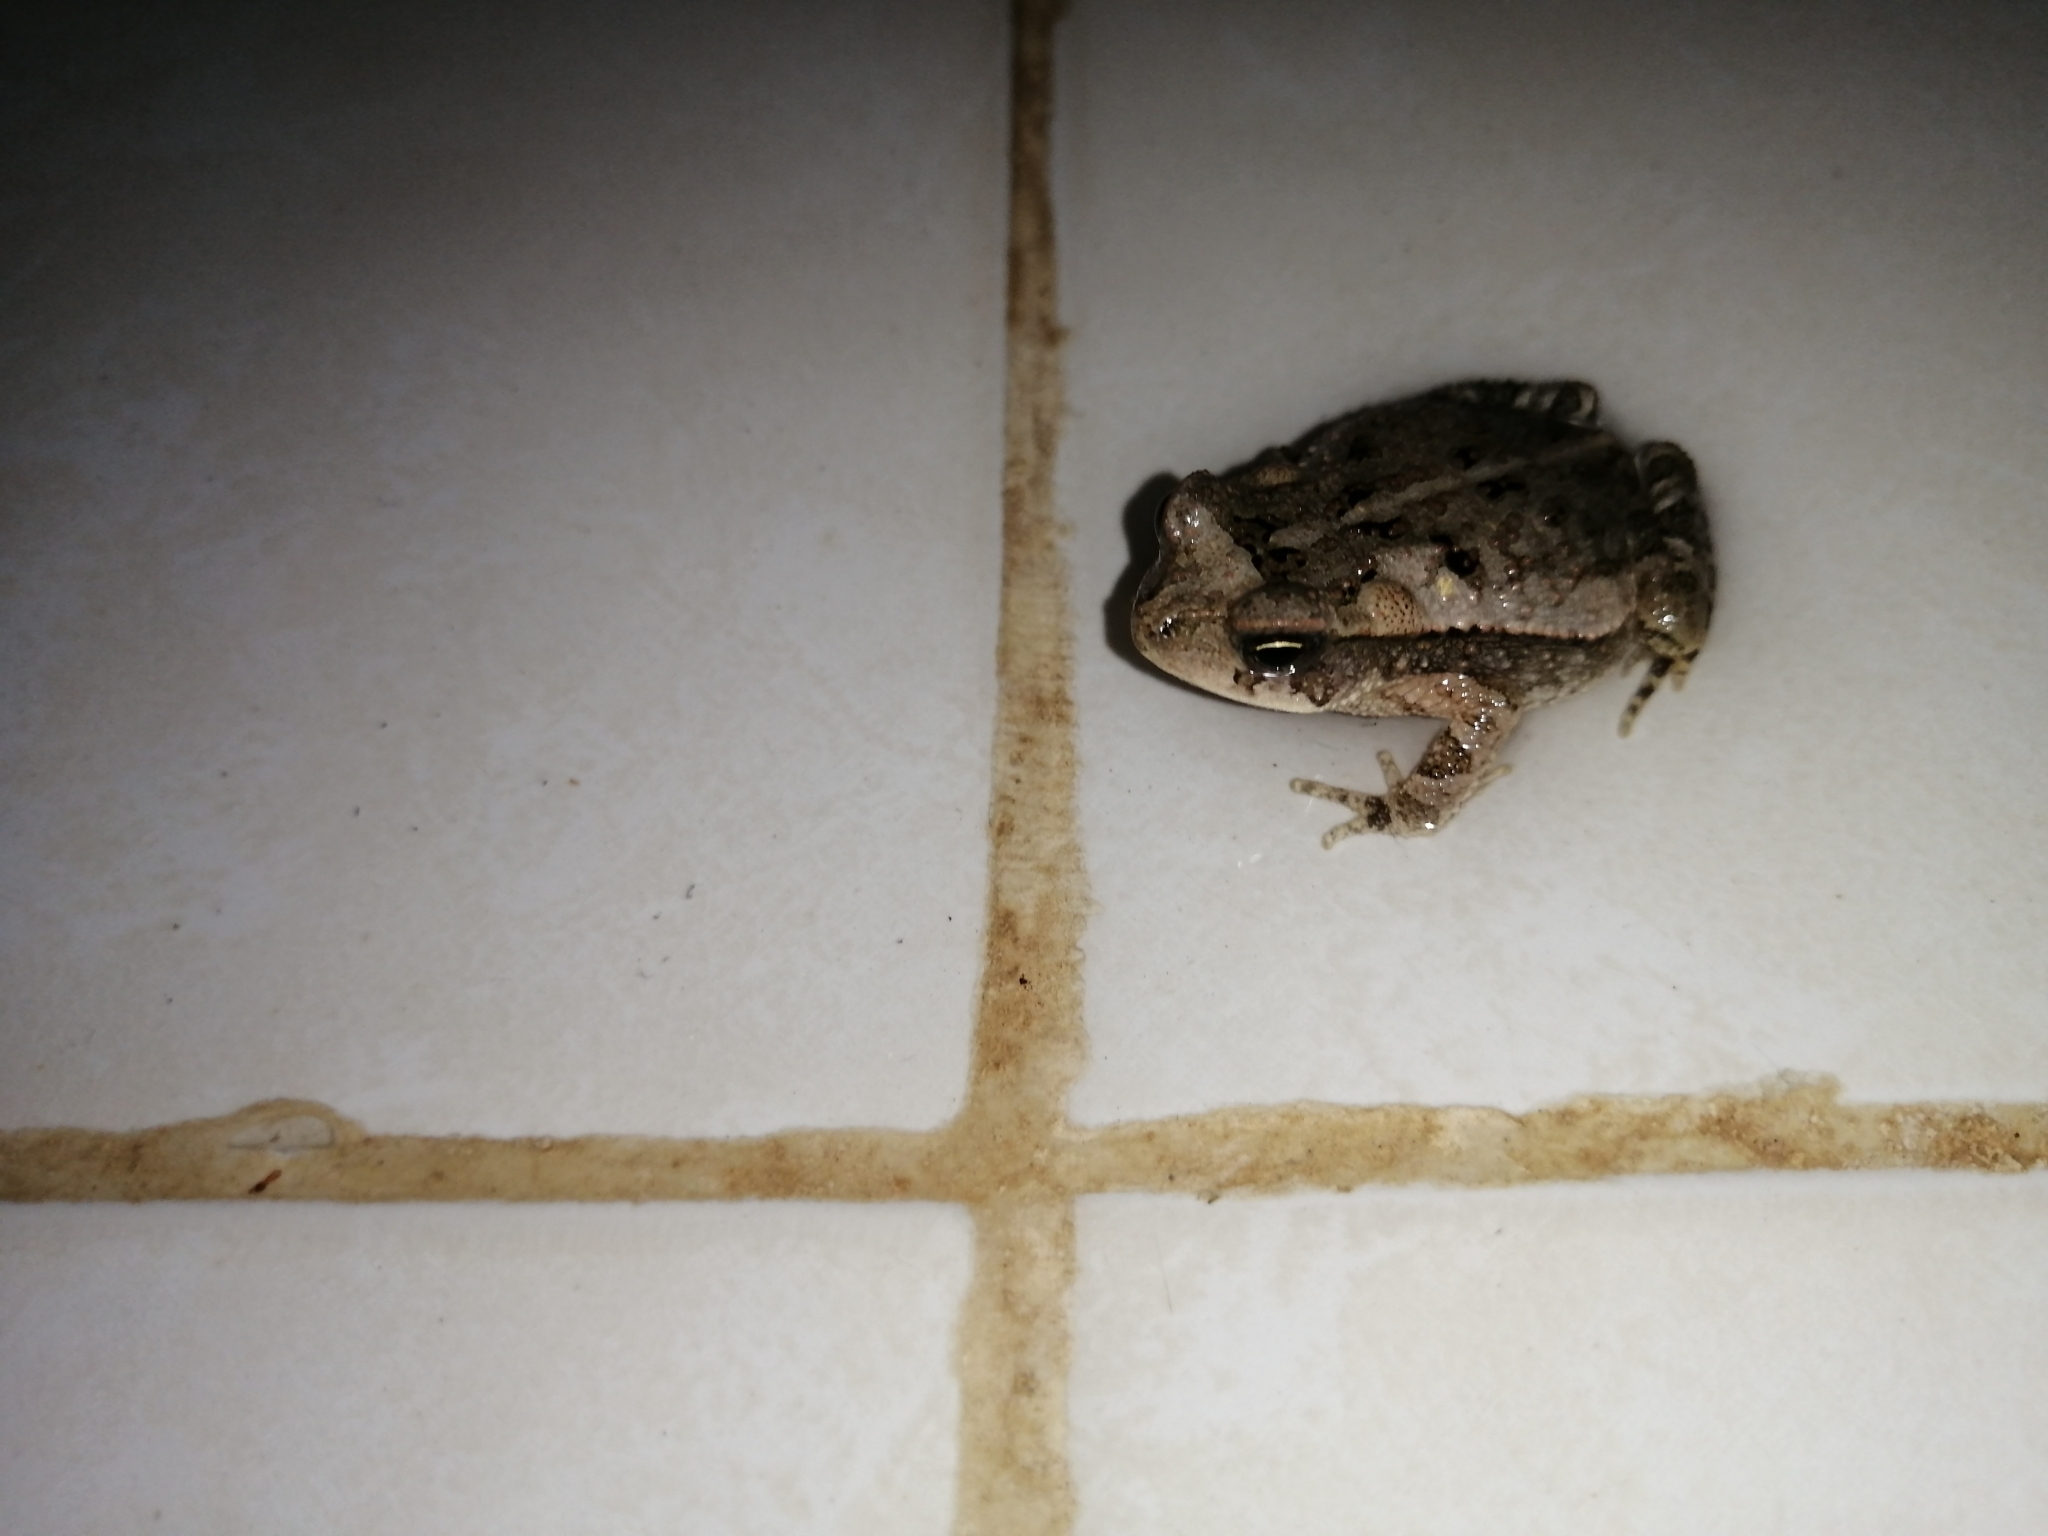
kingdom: Animalia
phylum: Chordata
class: Amphibia
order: Anura
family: Bufonidae
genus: Incilius
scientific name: Incilius valliceps
